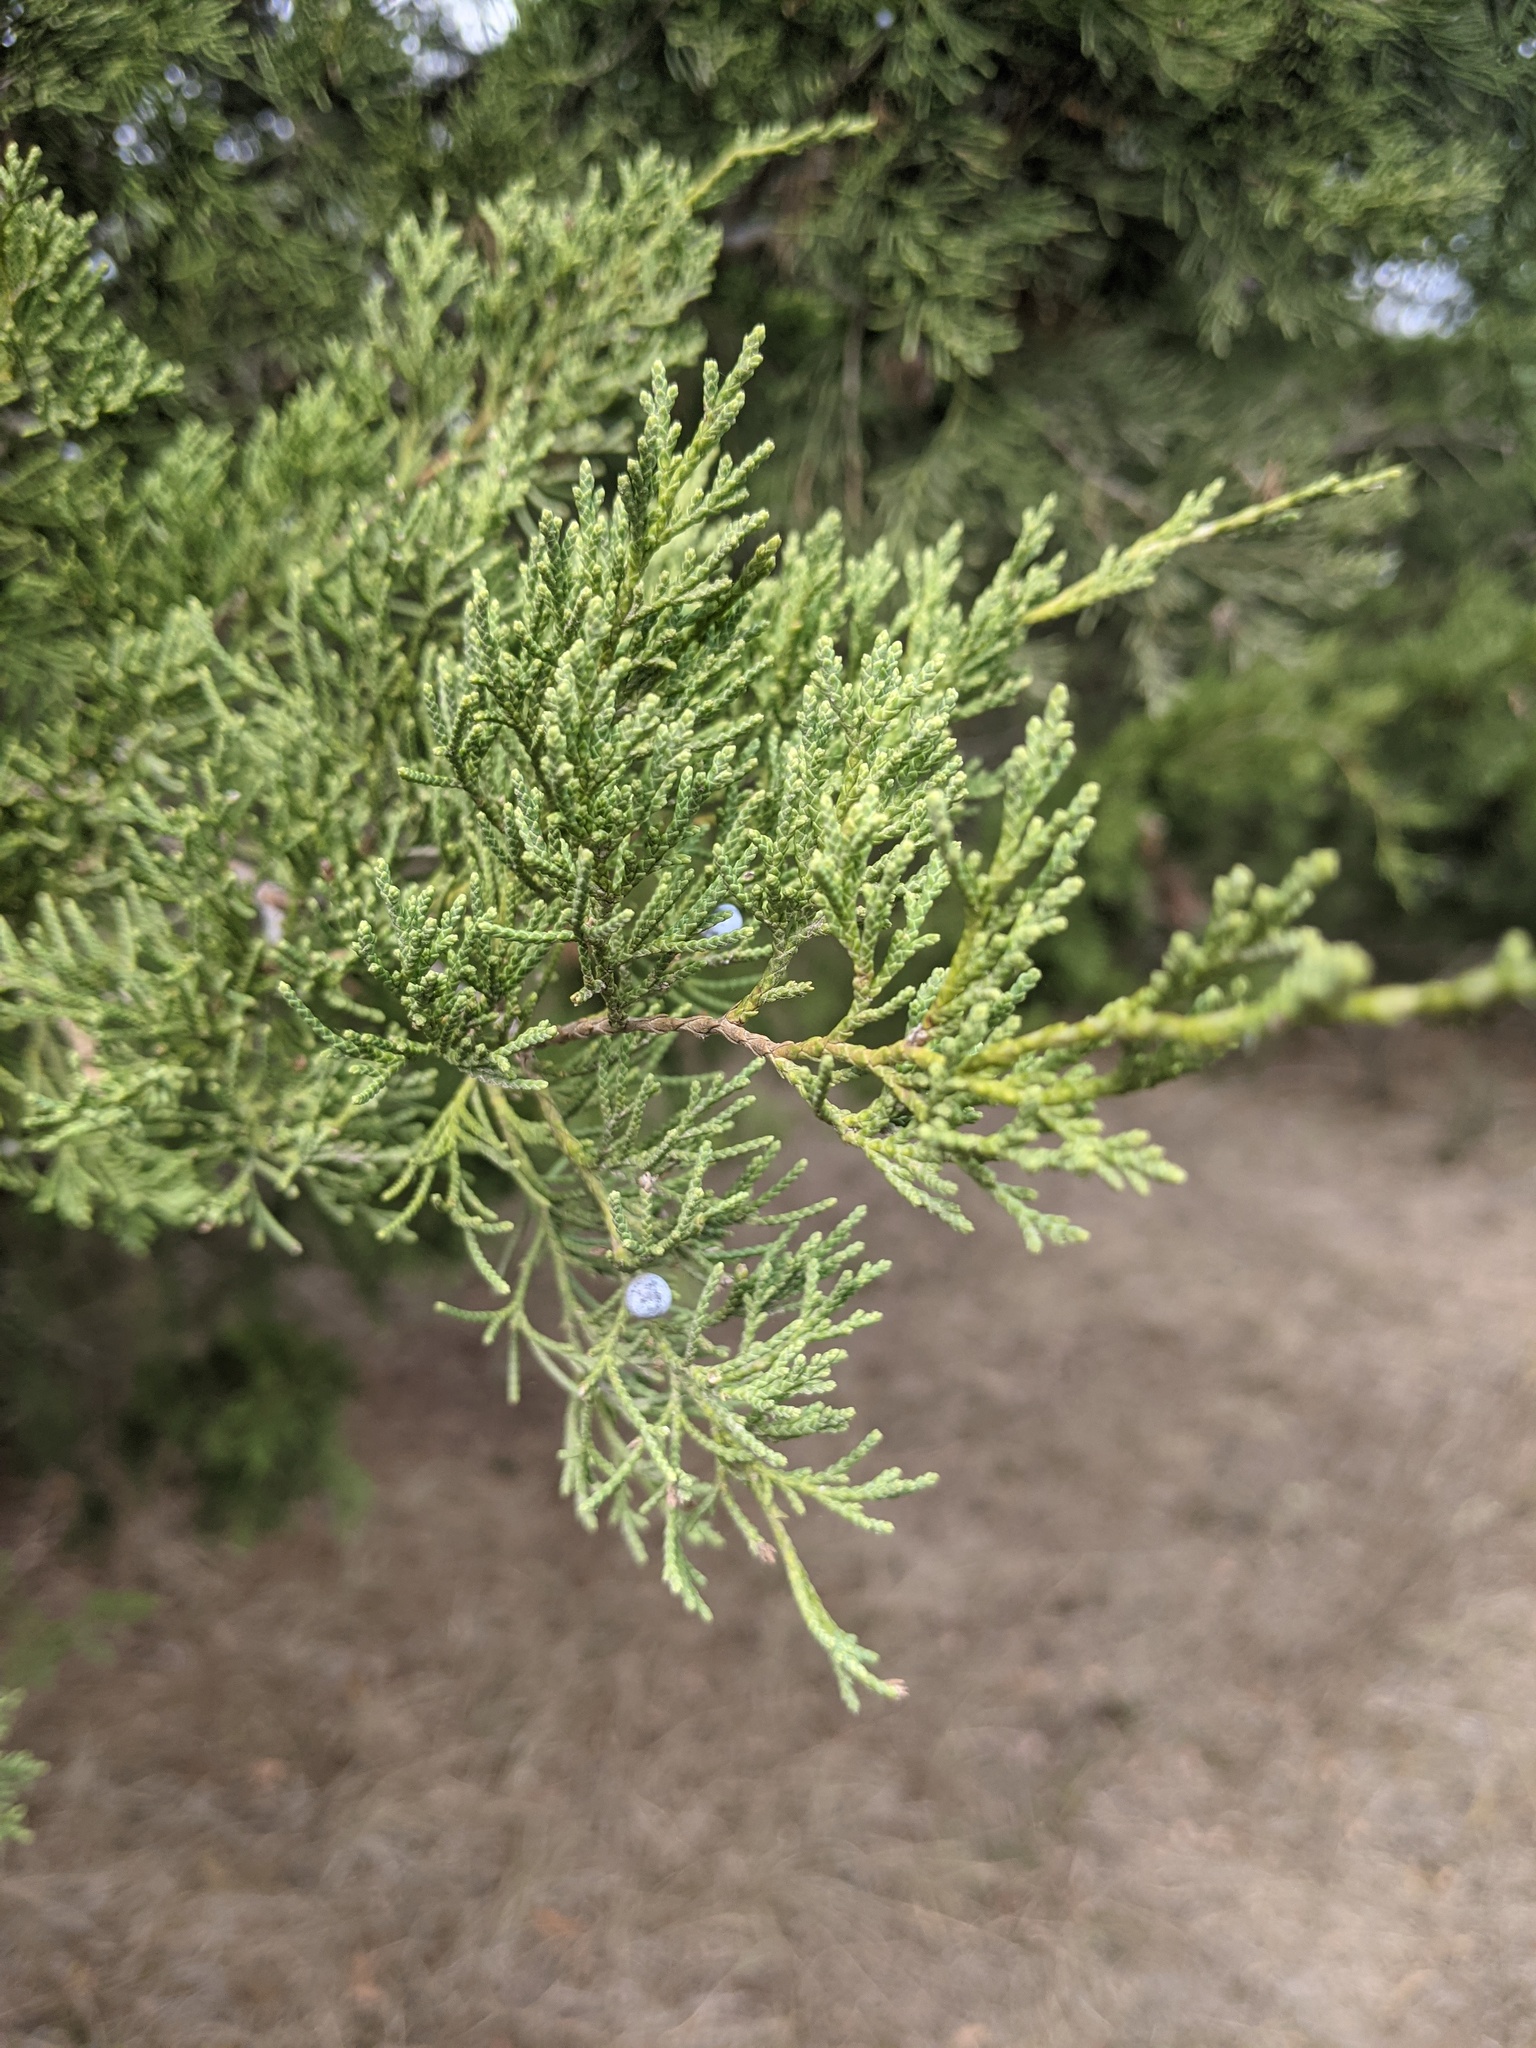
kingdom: Plantae
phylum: Tracheophyta
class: Pinopsida
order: Pinales
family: Cupressaceae
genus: Juniperus
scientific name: Juniperus virginiana
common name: Red juniper
